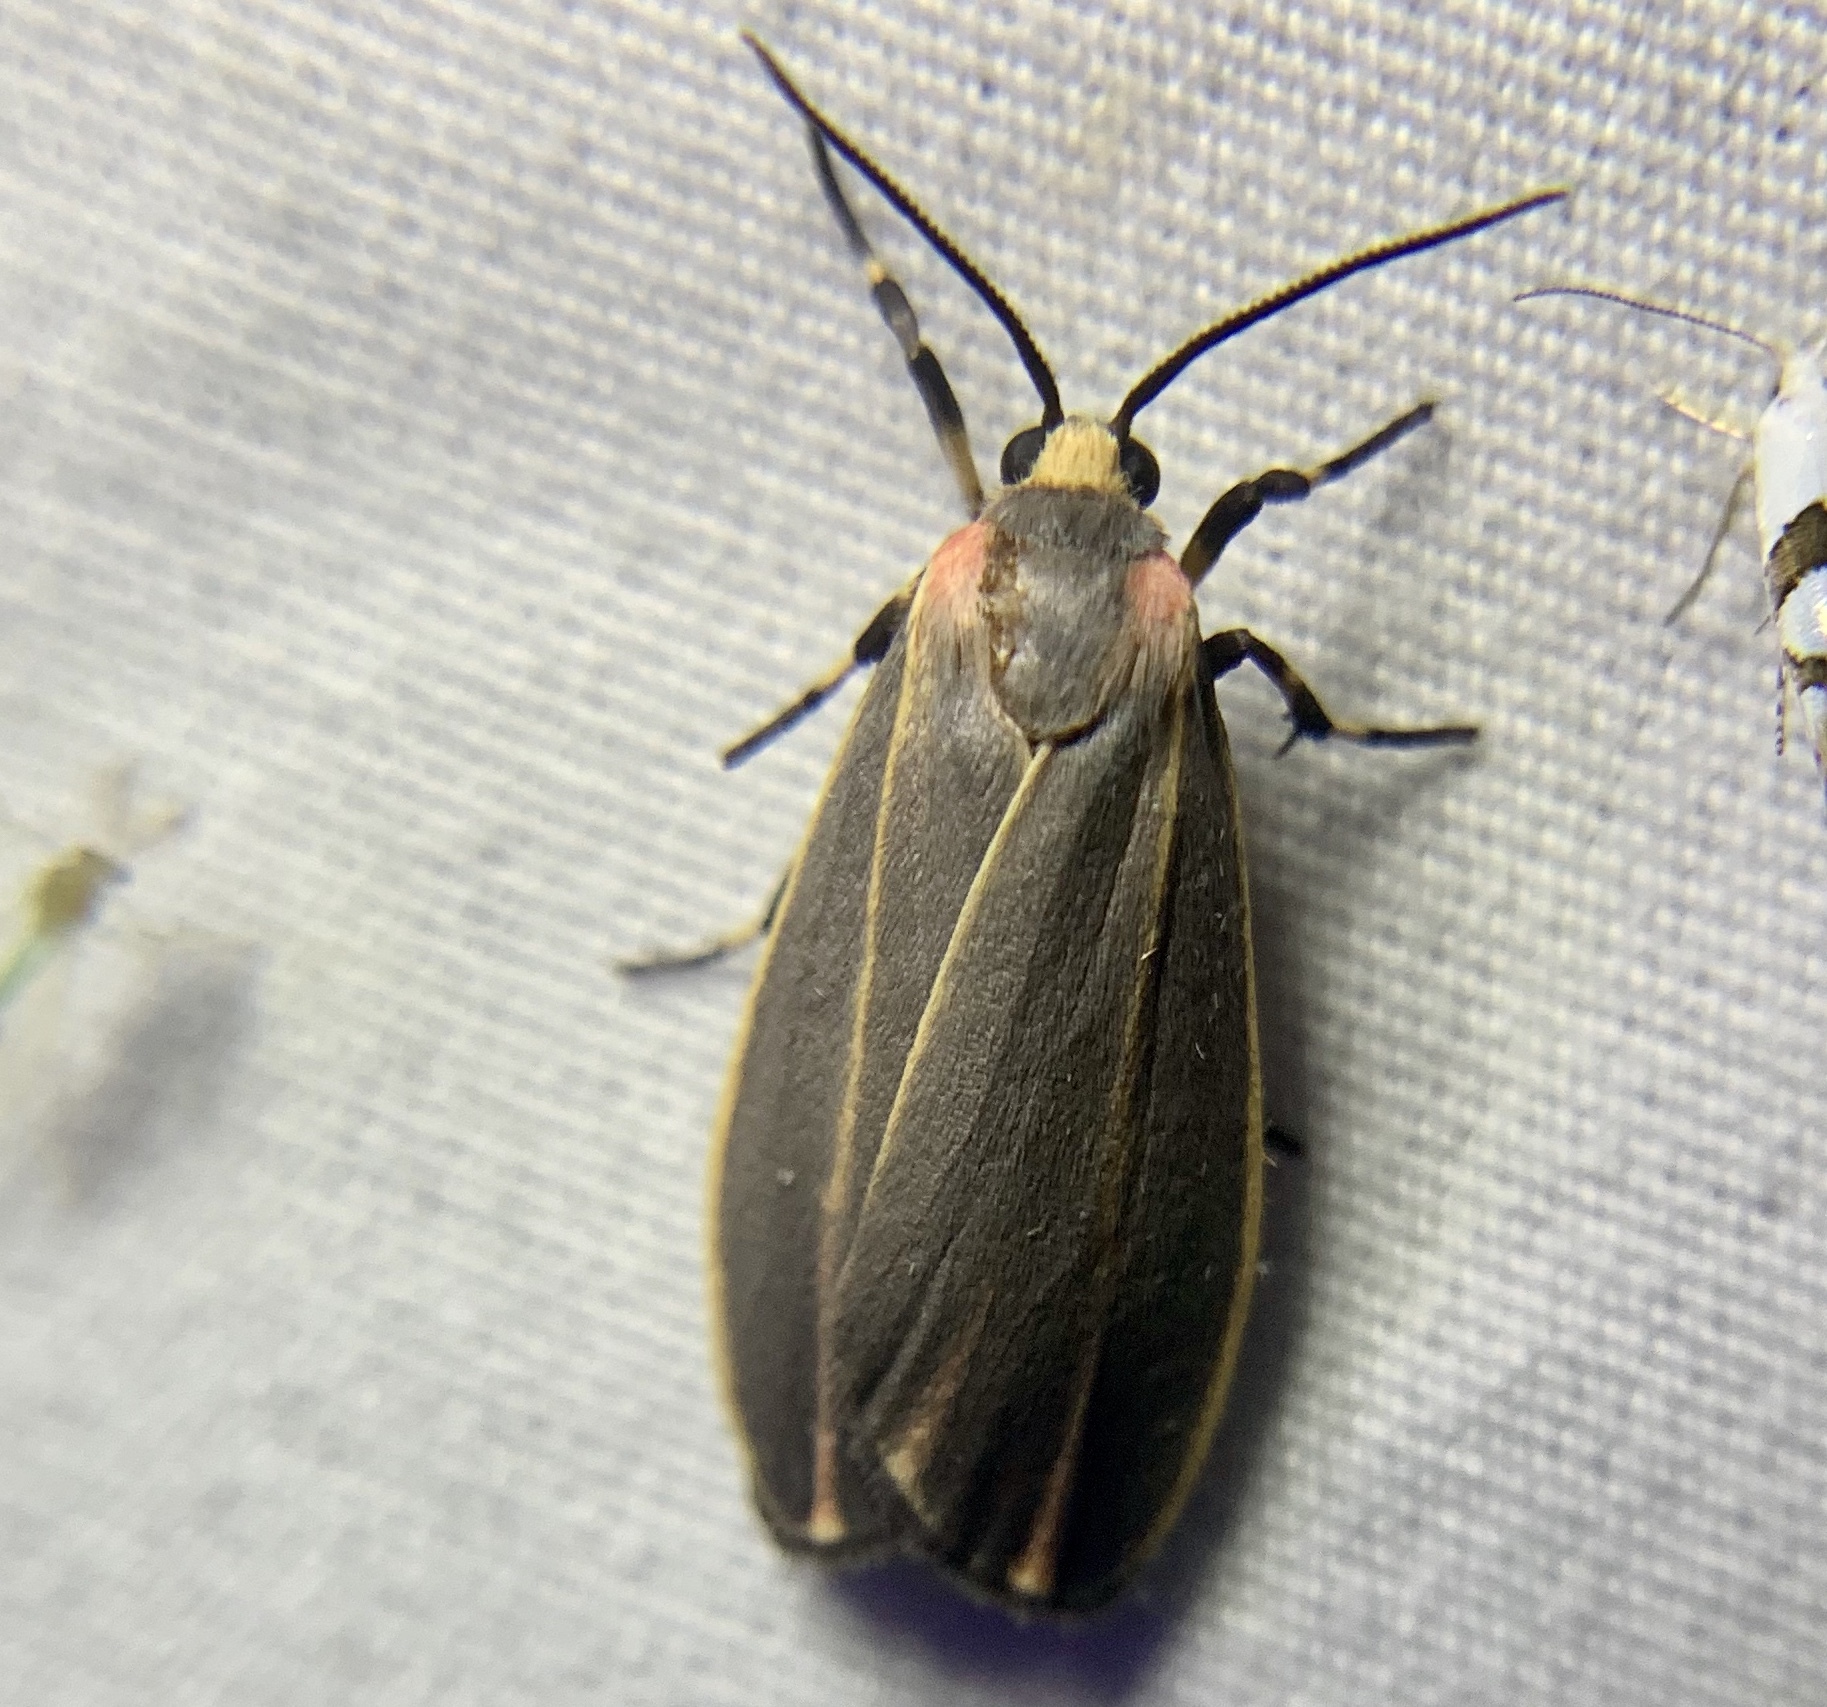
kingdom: Animalia
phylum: Arthropoda
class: Insecta
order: Lepidoptera
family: Erebidae
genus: Hypoprepia
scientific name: Hypoprepia fucosa
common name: Painted lichen moth
